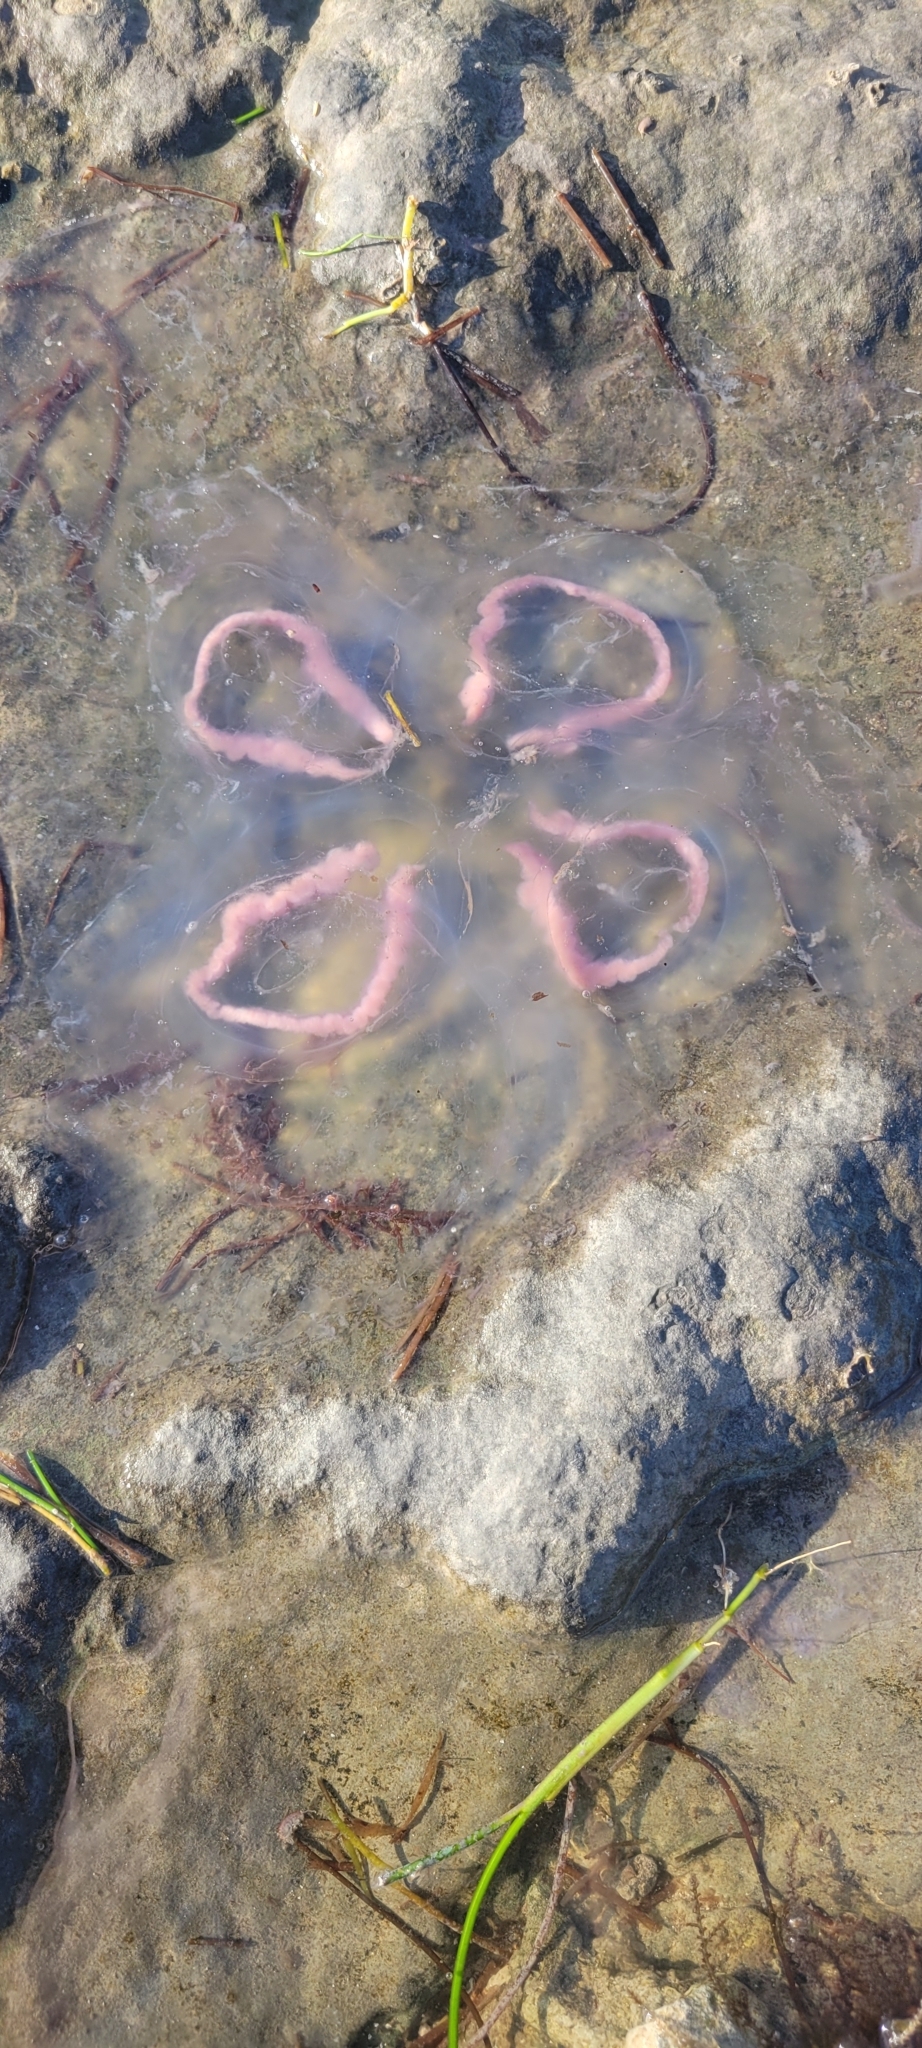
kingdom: Animalia
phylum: Cnidaria
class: Scyphozoa
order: Semaeostomeae
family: Ulmaridae
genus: Aurelia
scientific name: Aurelia marginalis
